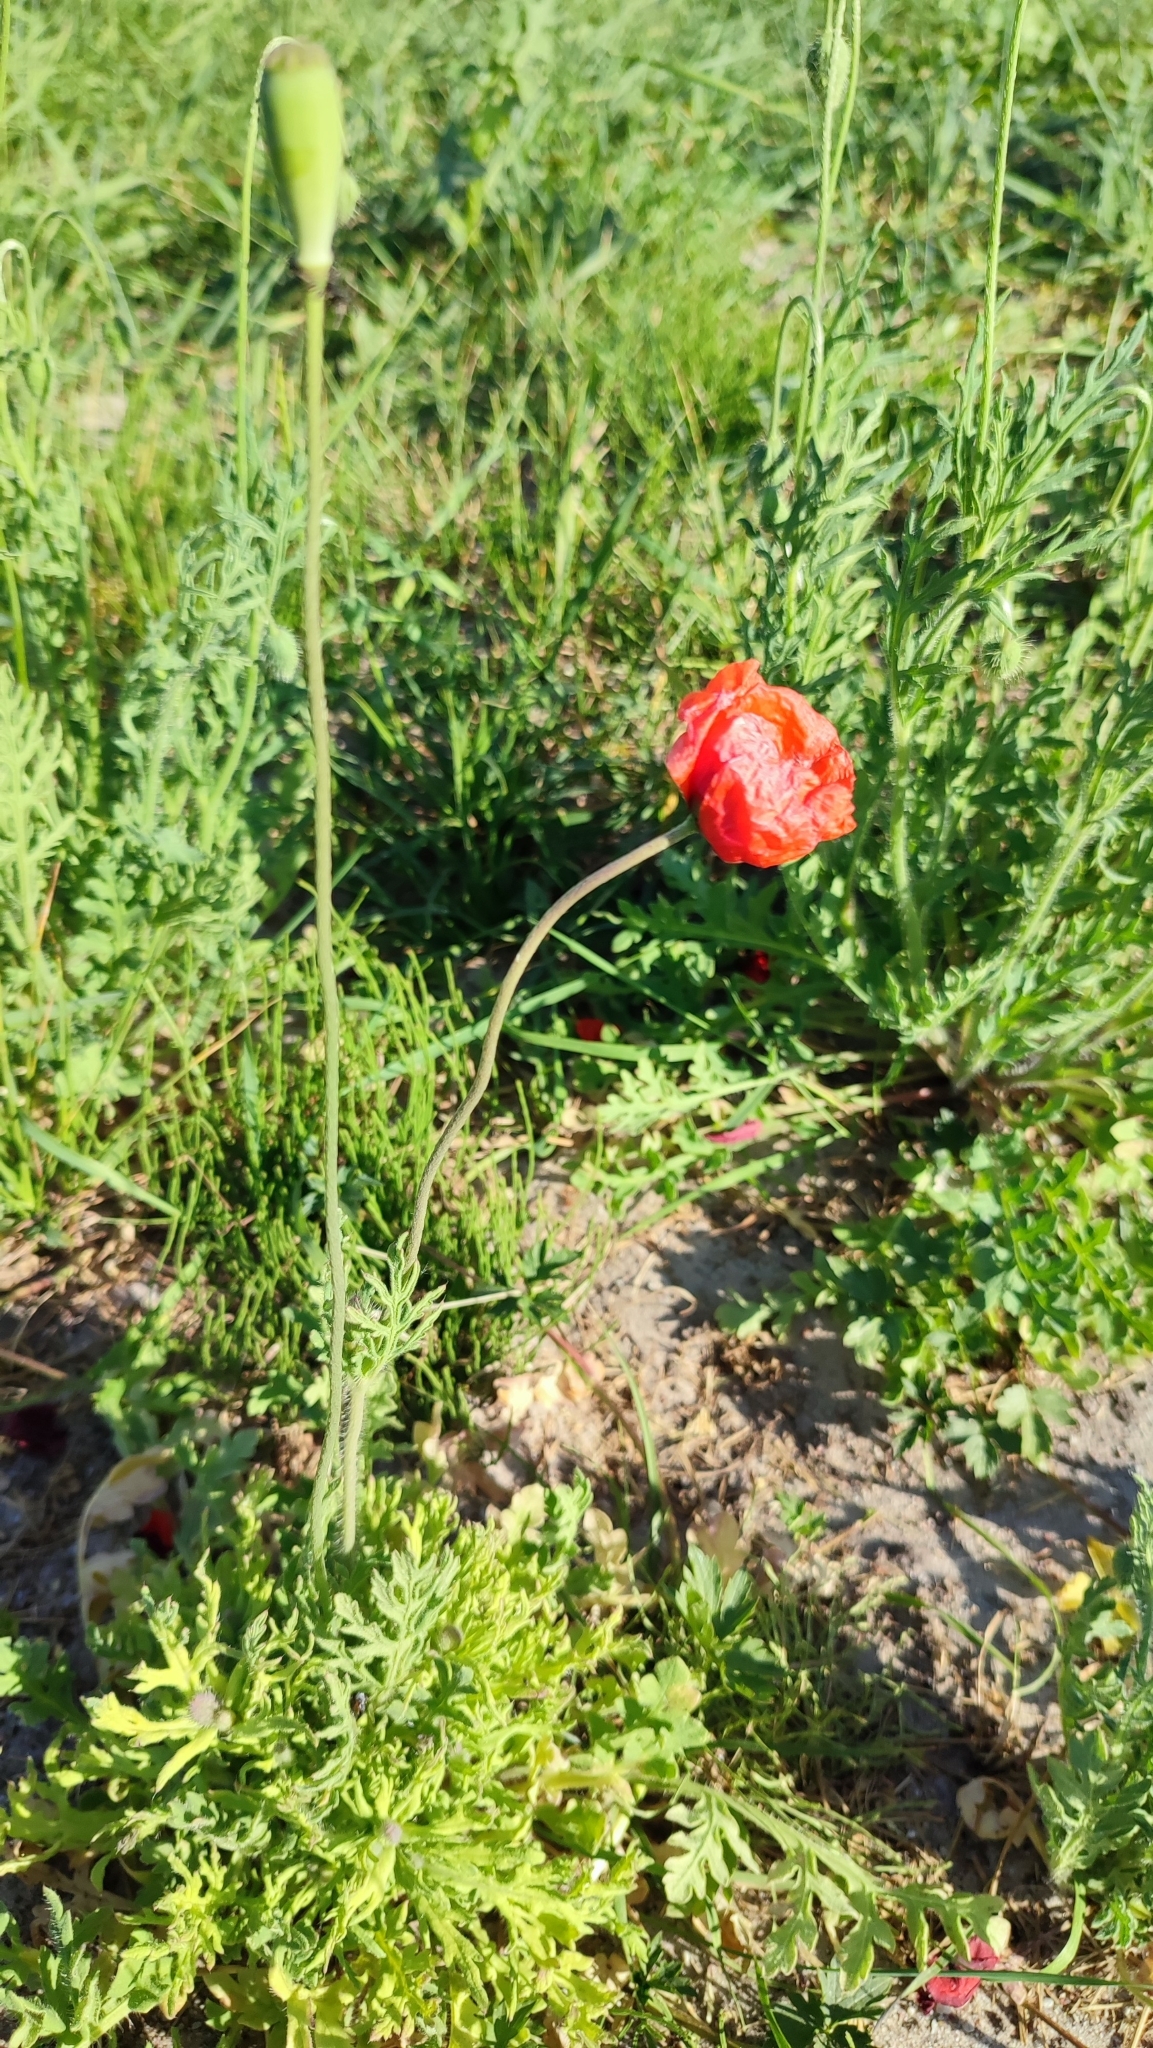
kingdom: Plantae
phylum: Tracheophyta
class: Magnoliopsida
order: Ranunculales
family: Papaveraceae
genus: Papaver
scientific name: Papaver dubium
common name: Long-headed poppy
